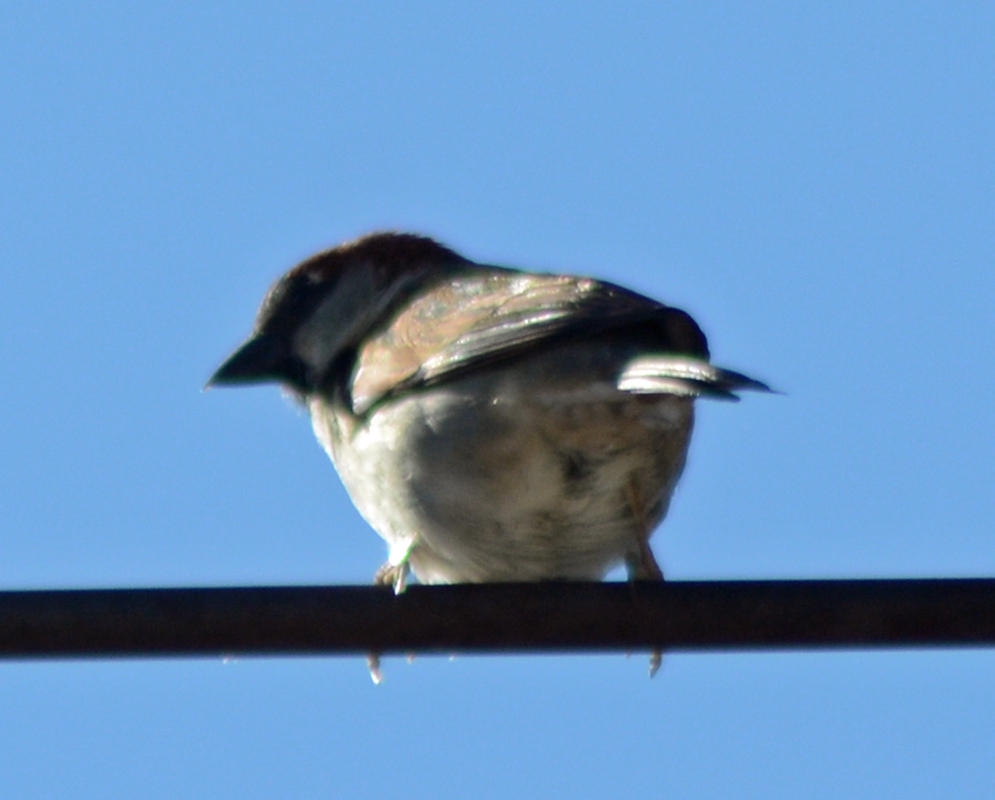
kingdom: Animalia
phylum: Chordata
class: Aves
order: Passeriformes
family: Passeridae
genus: Passer
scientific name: Passer domesticus
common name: House sparrow
